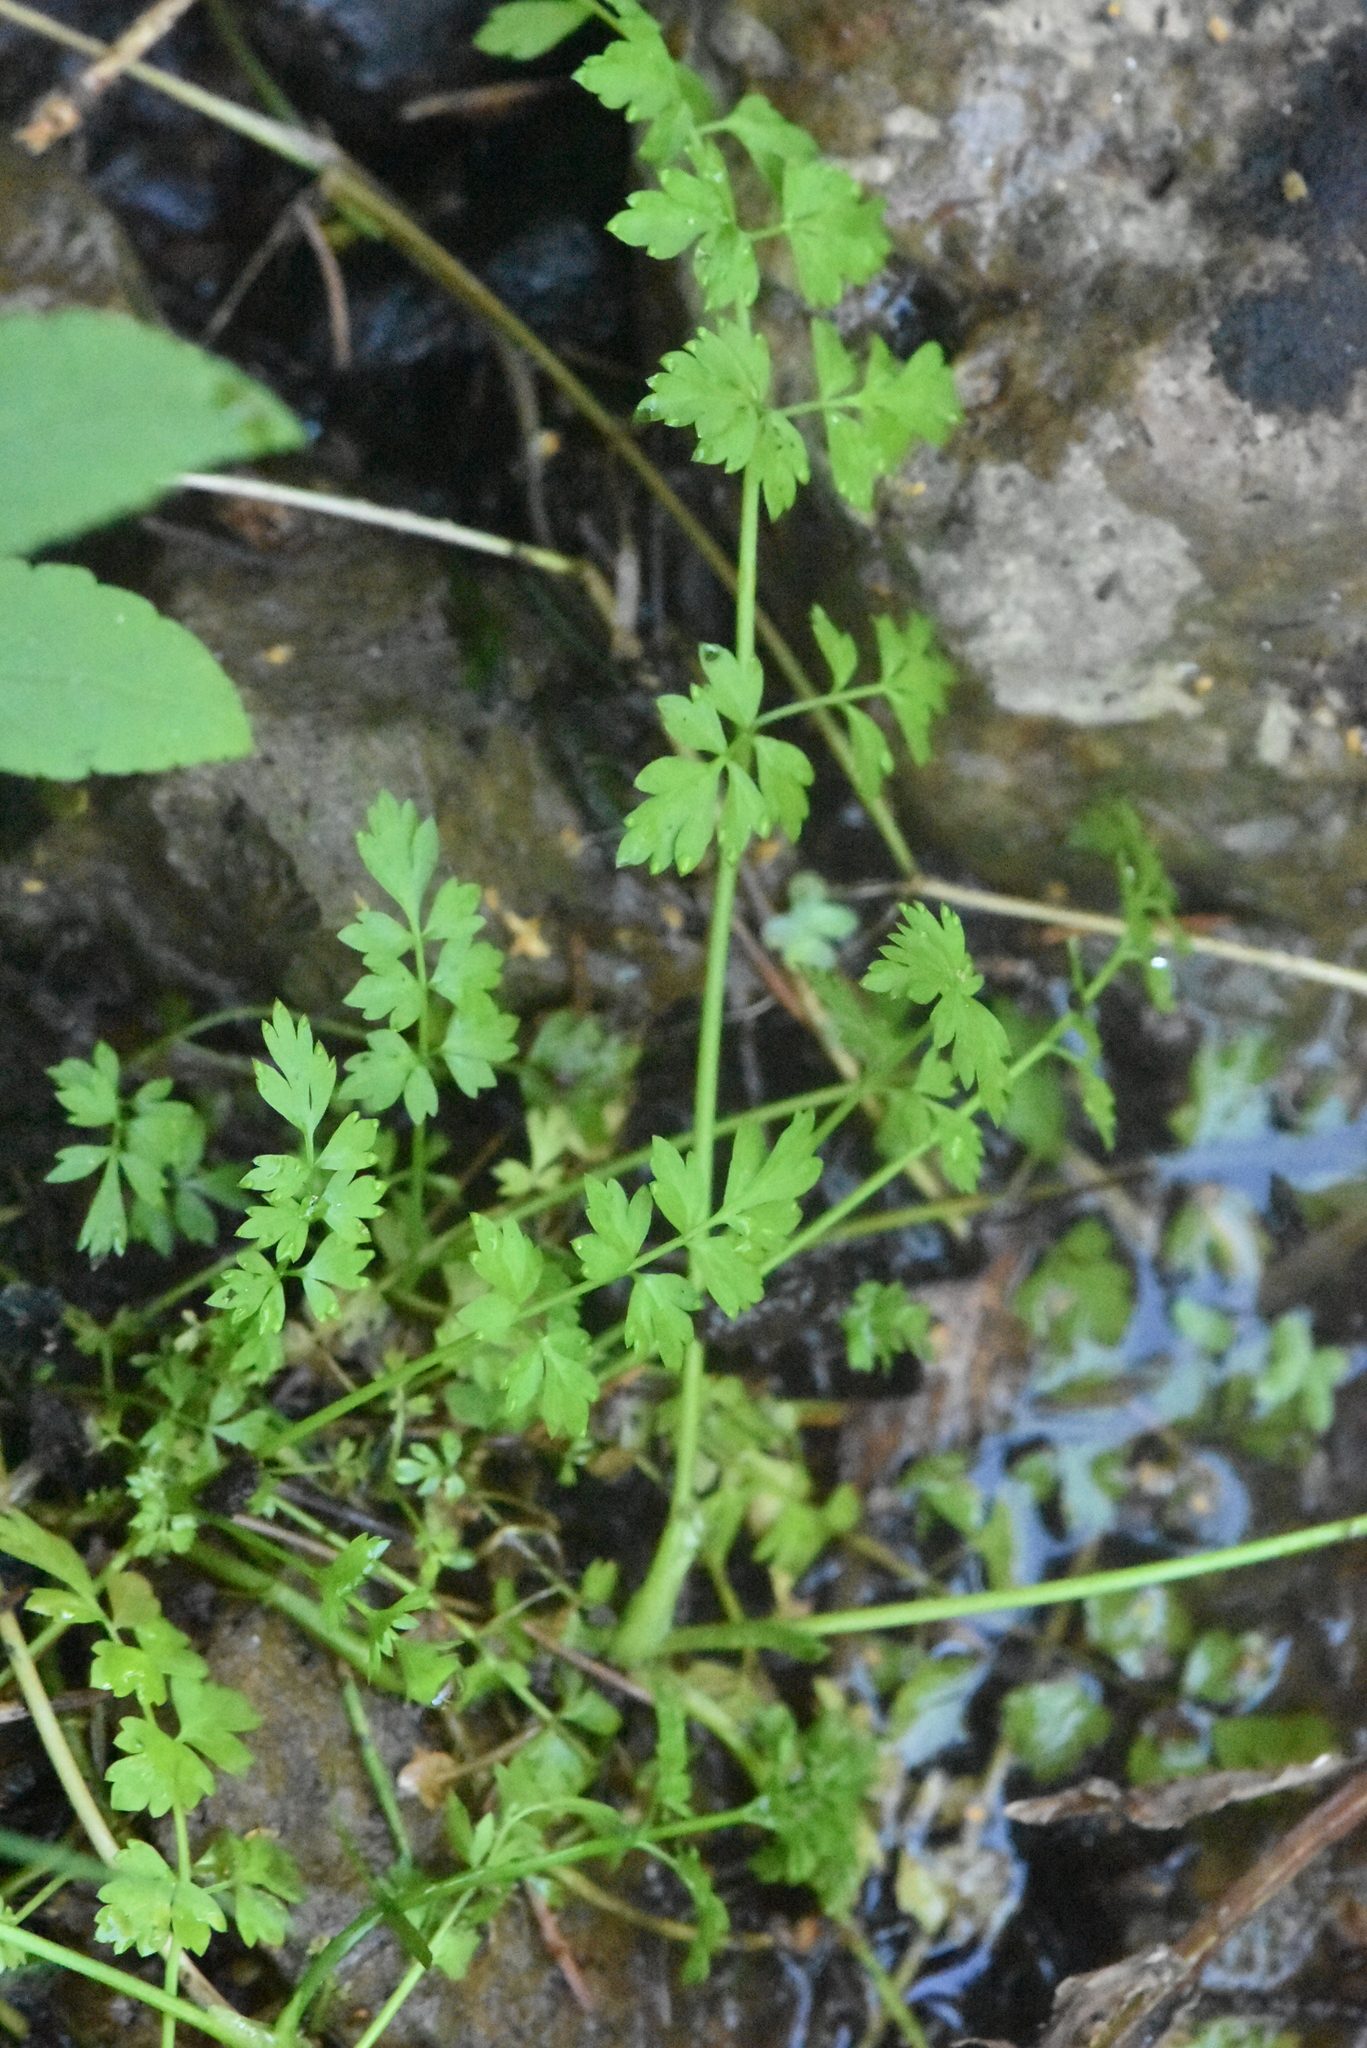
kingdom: Plantae
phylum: Tracheophyta
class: Magnoliopsida
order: Apiales
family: Apiaceae
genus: Oenanthe
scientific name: Oenanthe aquatica
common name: Fine-leaved water-dropwort
